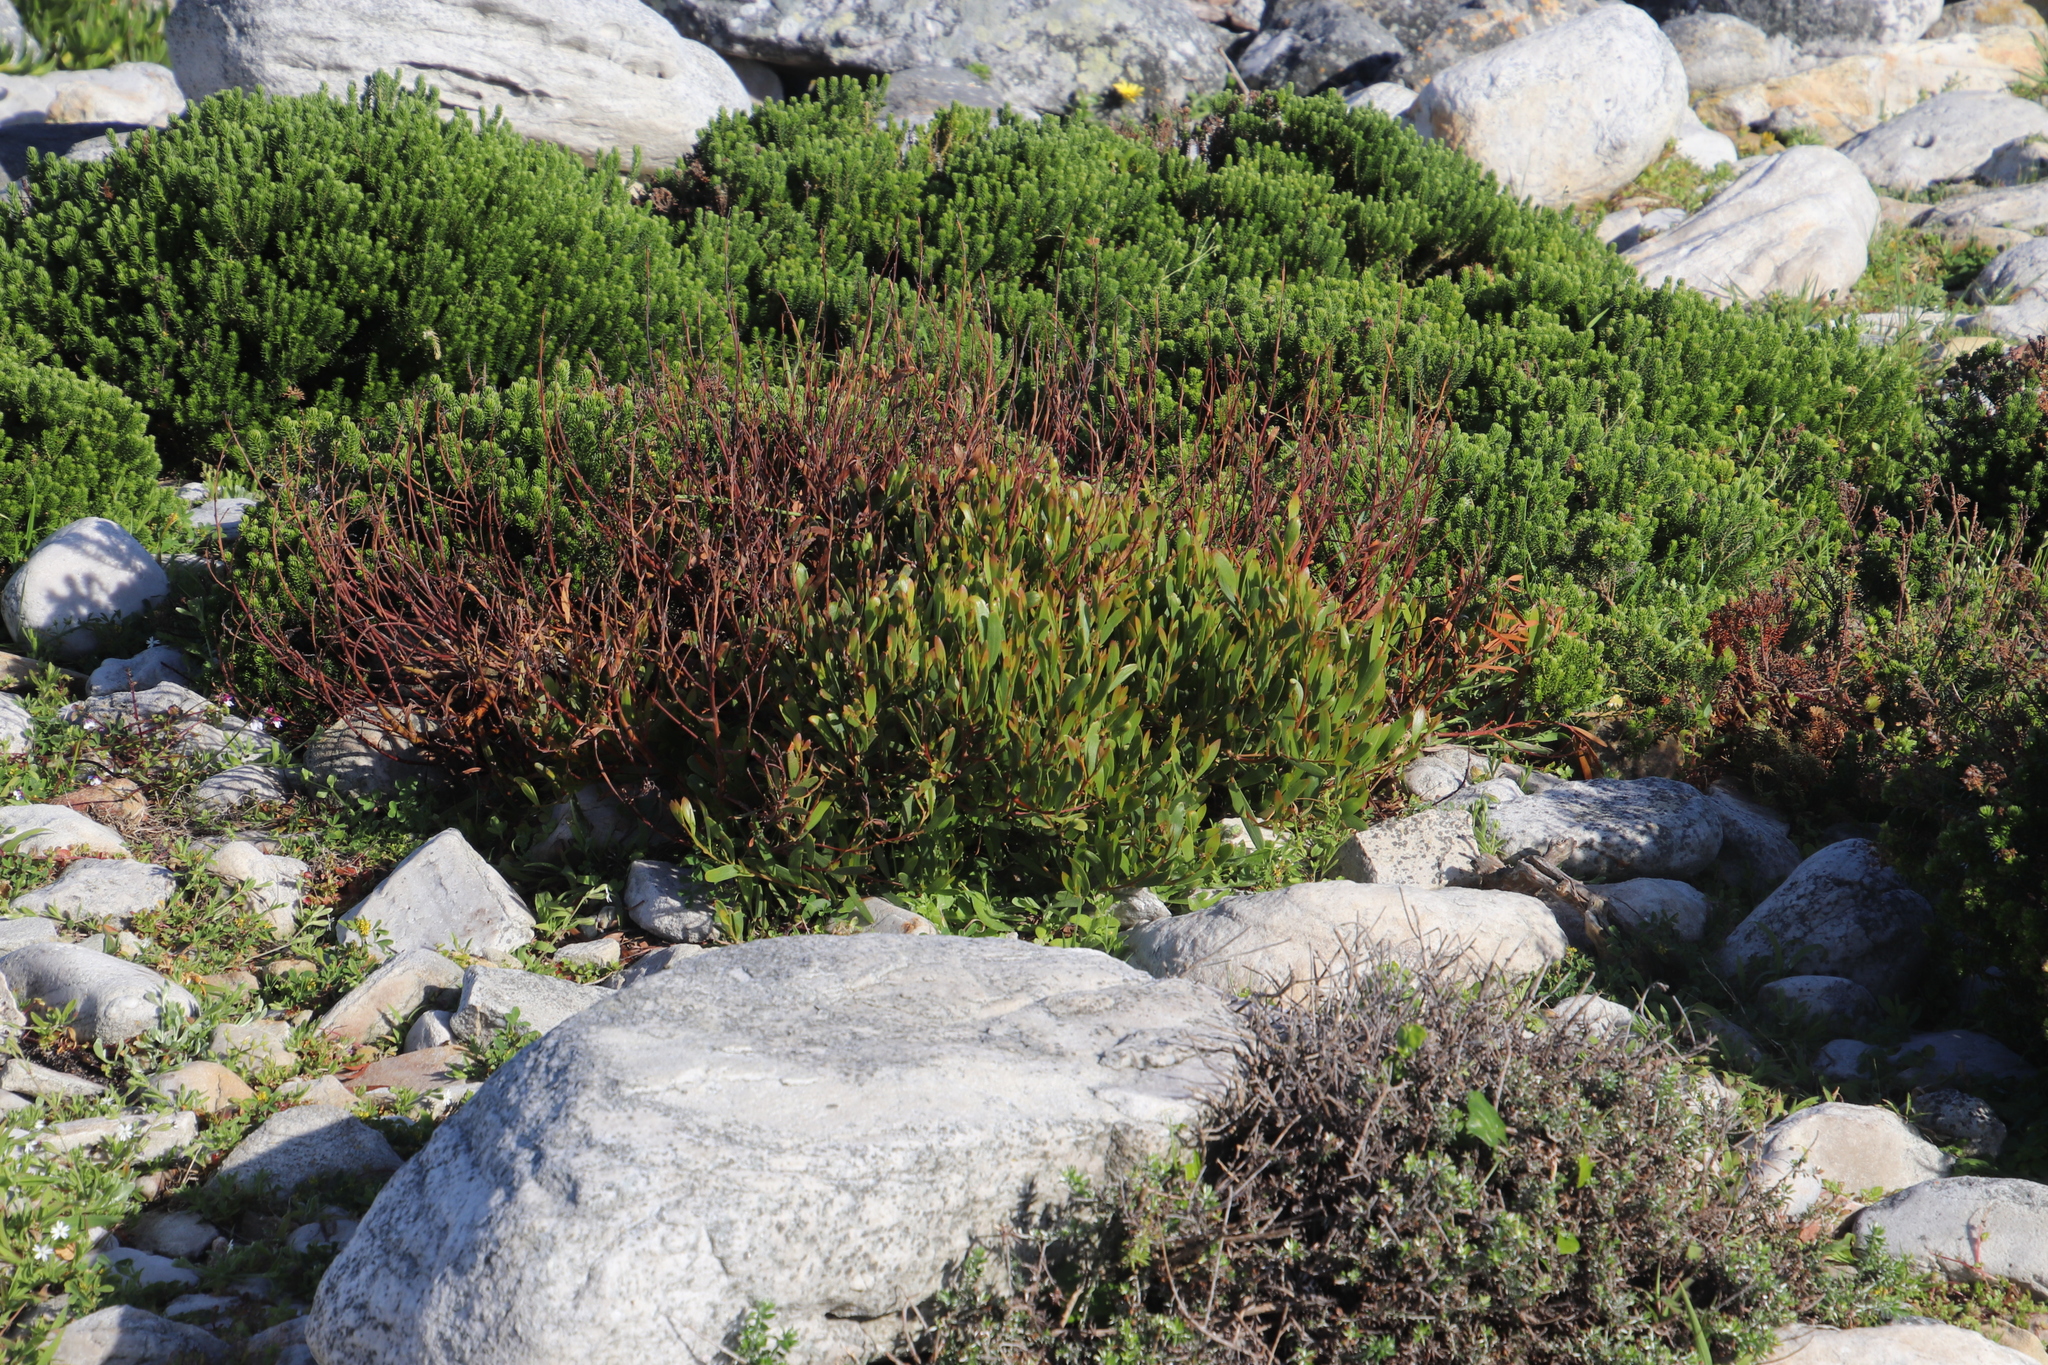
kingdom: Plantae
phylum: Tracheophyta
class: Magnoliopsida
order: Fabales
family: Fabaceae
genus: Acacia
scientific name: Acacia cyclops
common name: Coastal wattle
